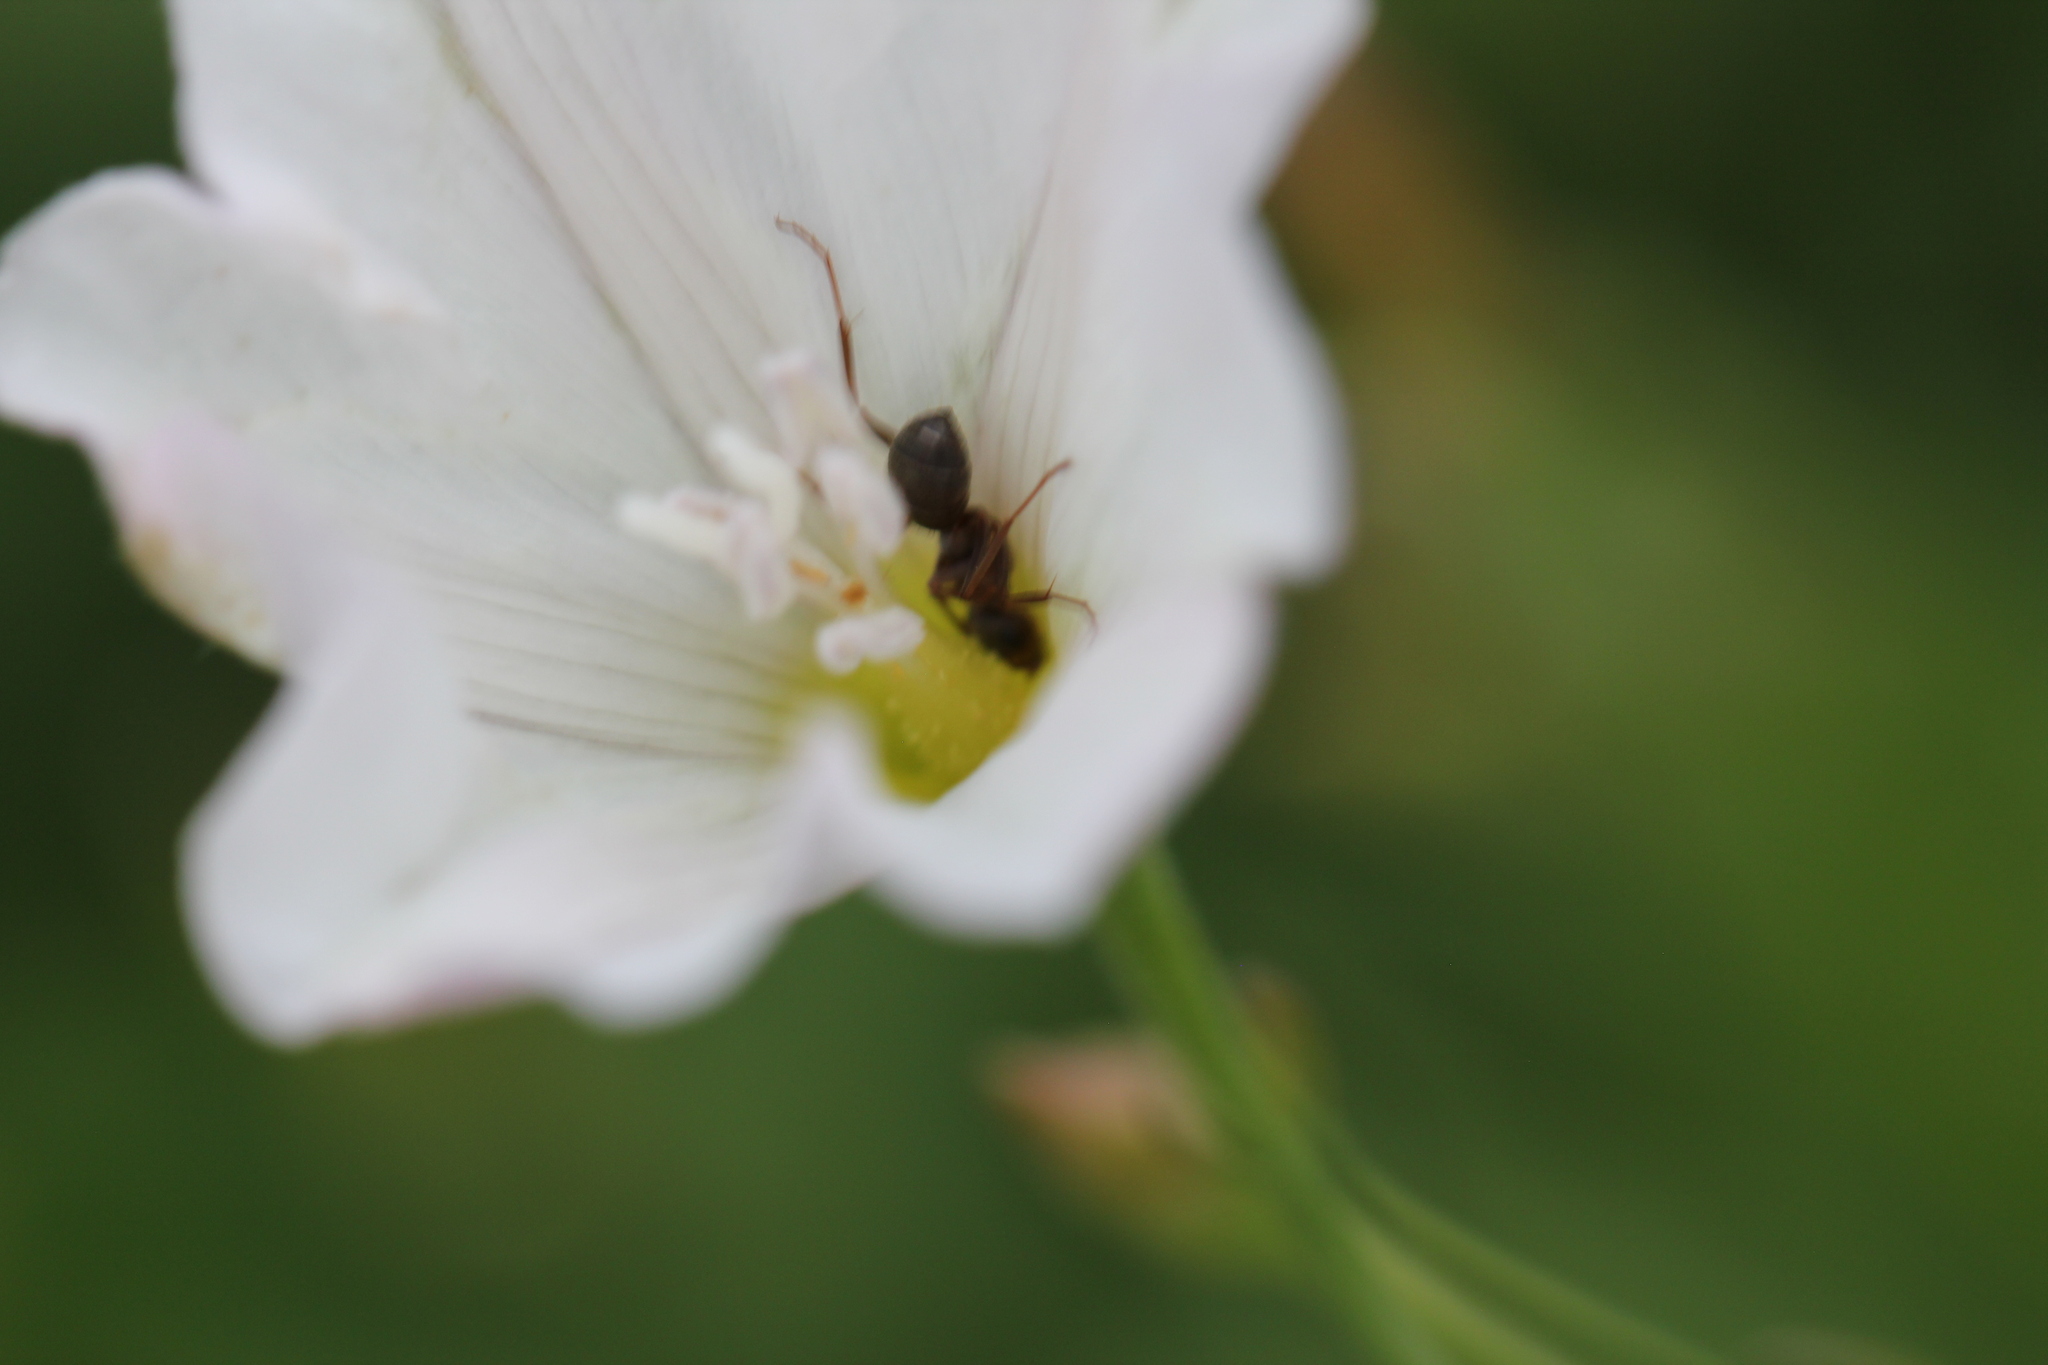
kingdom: Animalia
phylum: Arthropoda
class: Insecta
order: Hymenoptera
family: Formicidae
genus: Formica
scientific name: Formica montana
